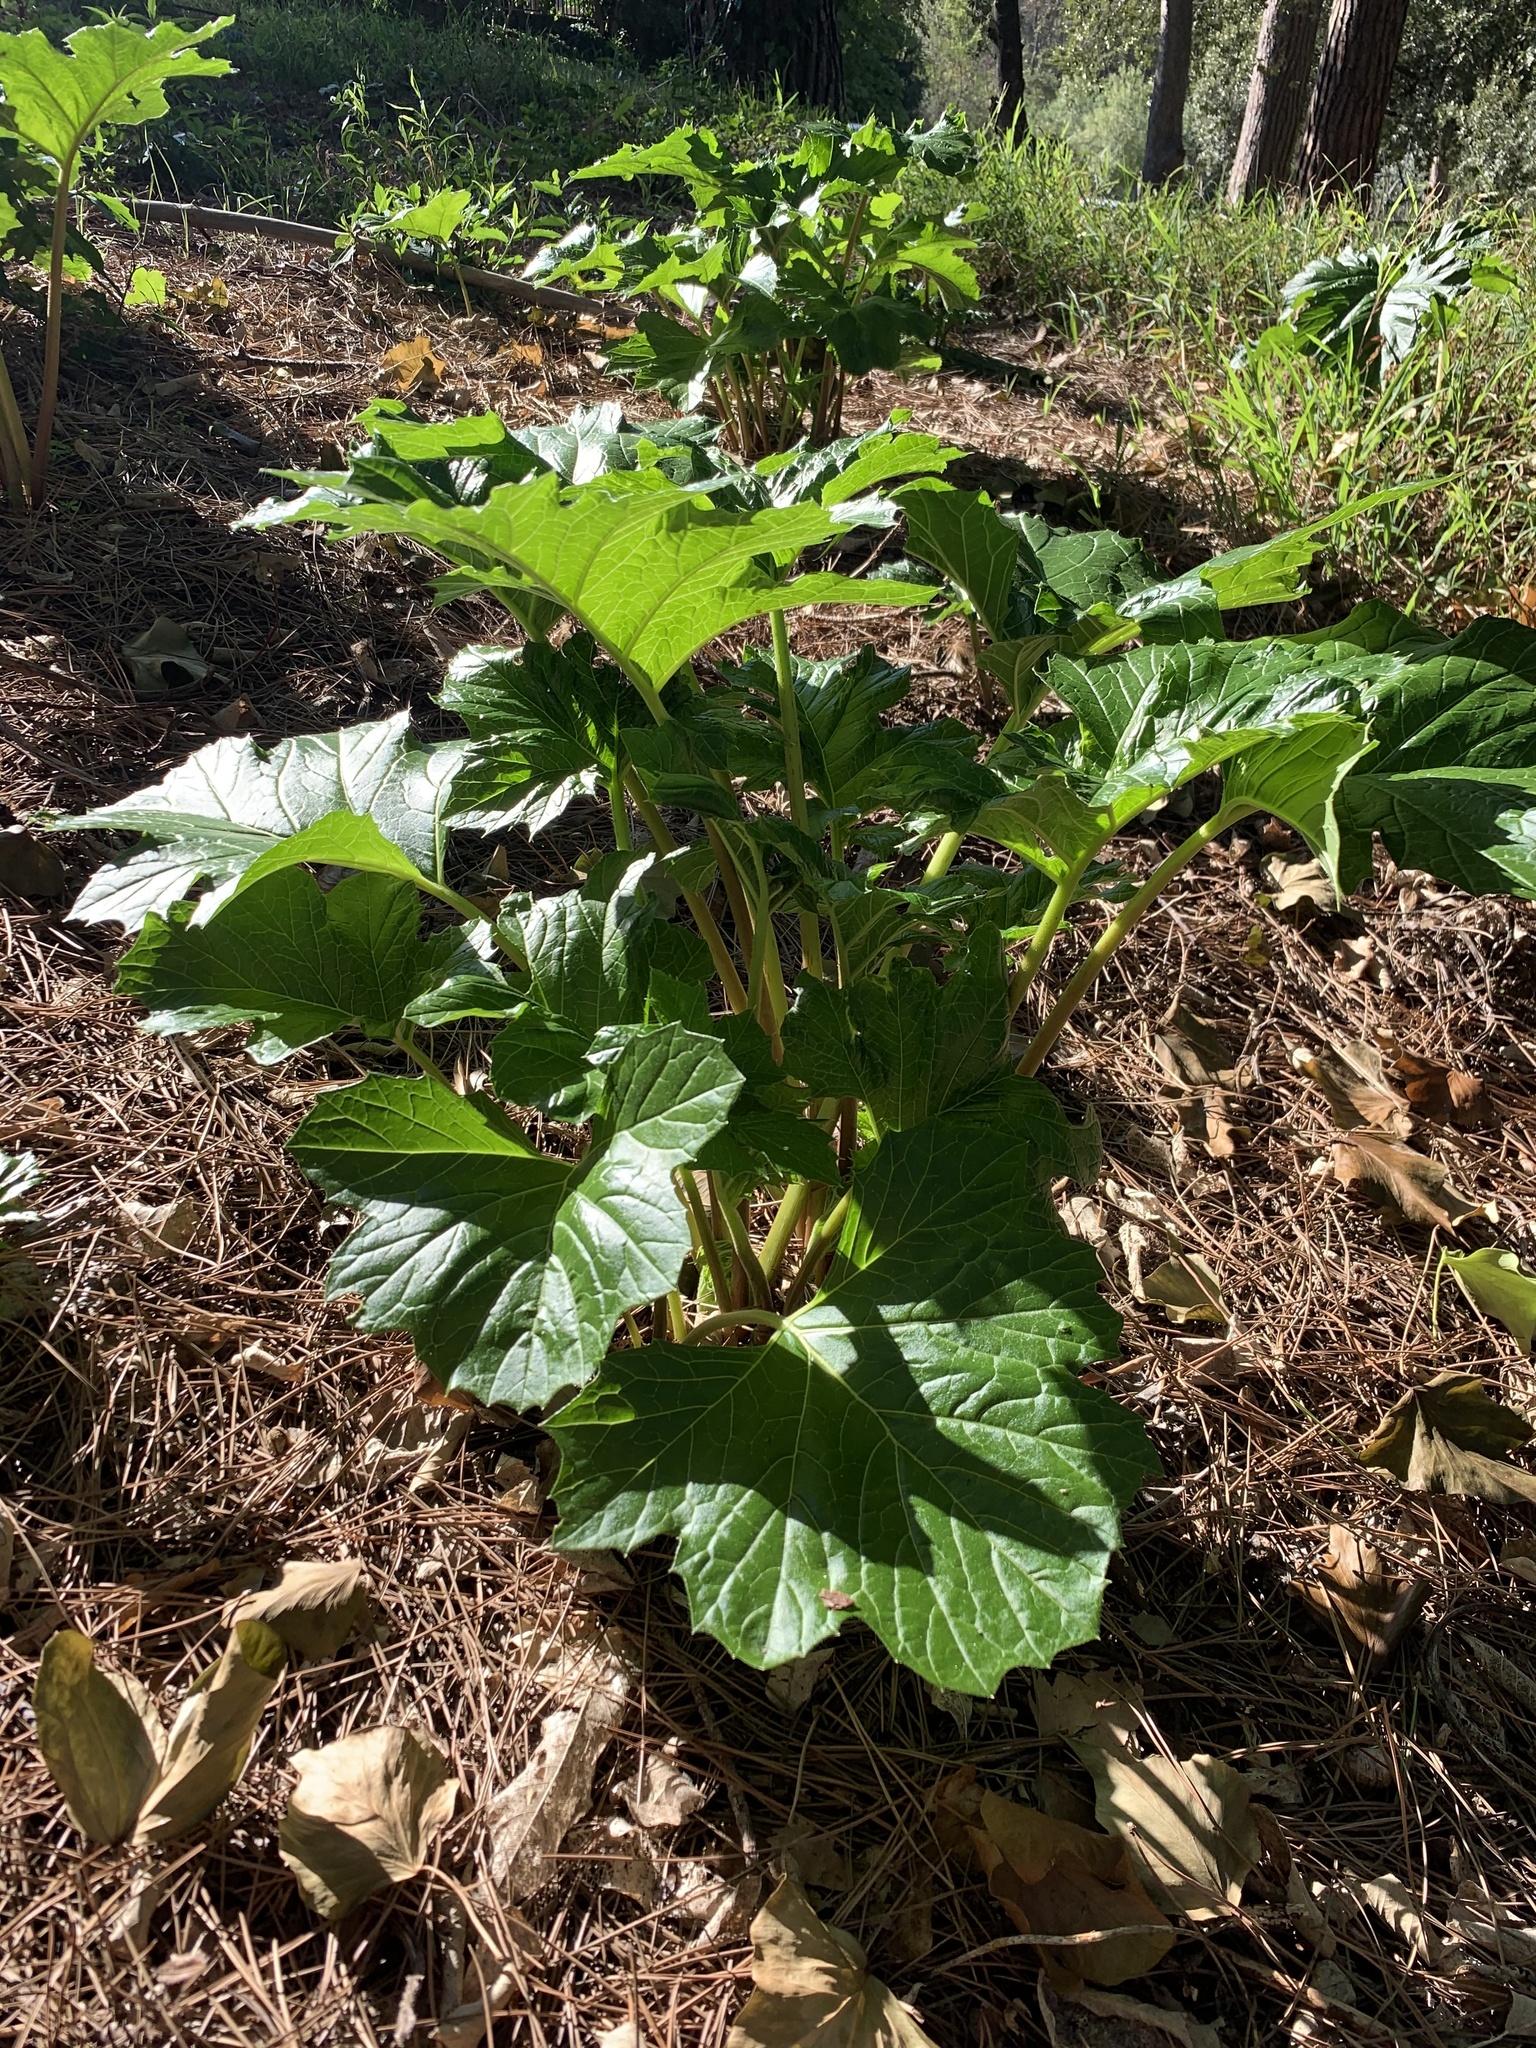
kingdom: Plantae
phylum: Tracheophyta
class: Magnoliopsida
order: Lamiales
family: Acanthaceae
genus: Acanthus
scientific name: Acanthus mollis
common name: Bear's-breech
